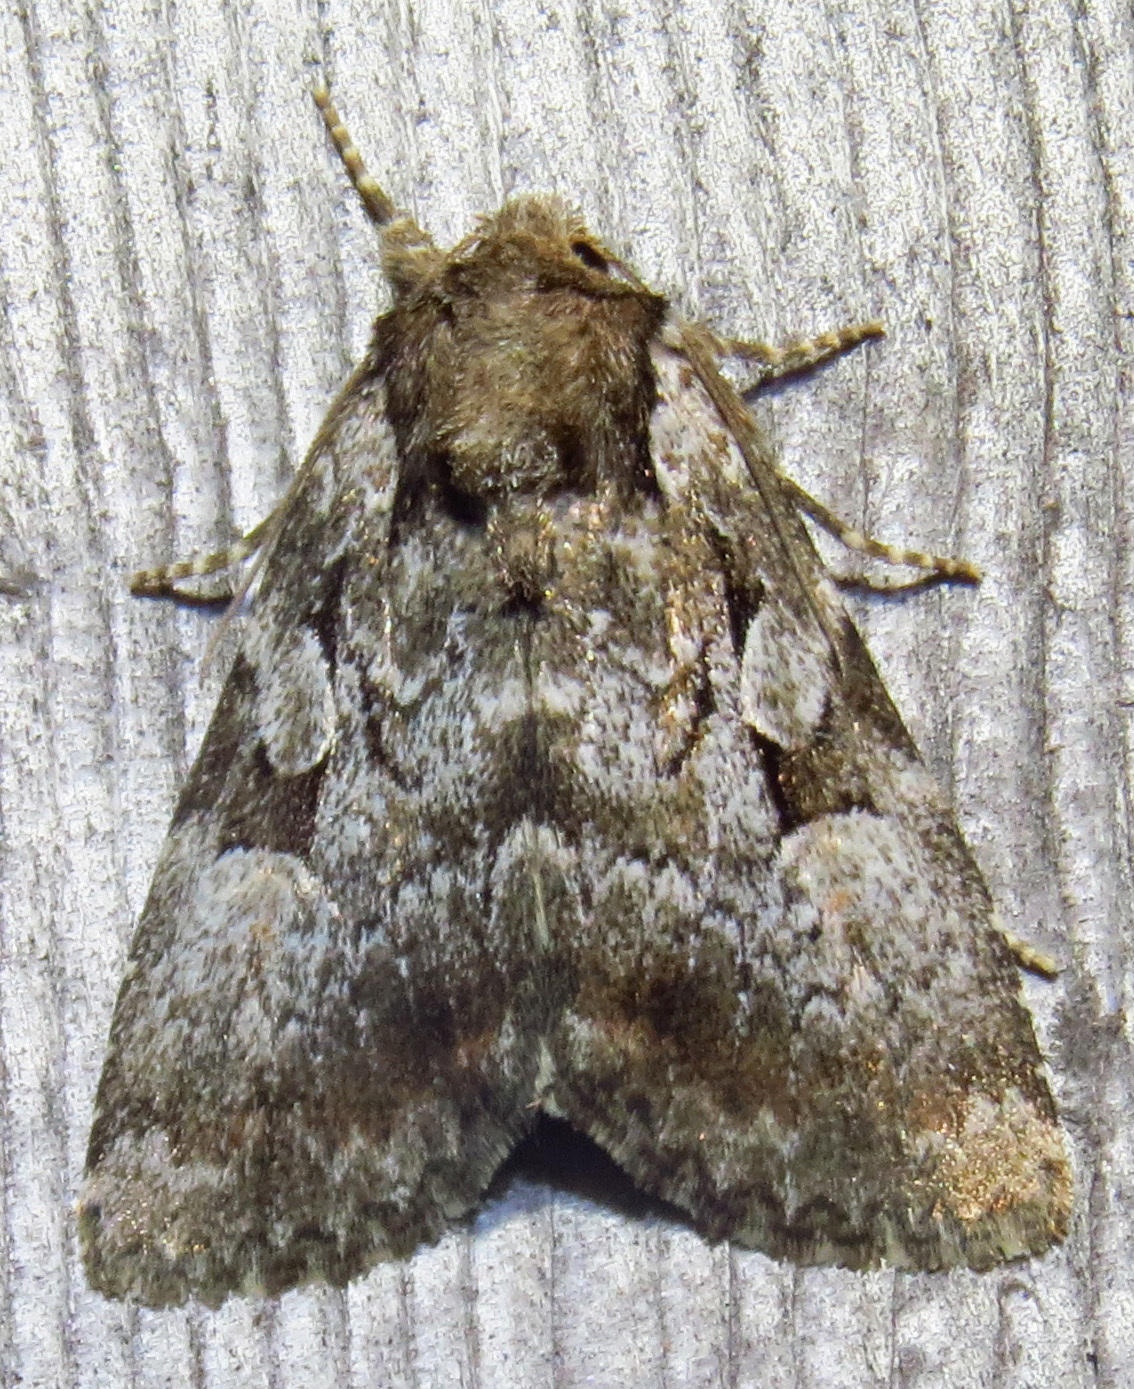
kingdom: Animalia
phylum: Arthropoda
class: Insecta
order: Lepidoptera
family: Noctuidae
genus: Aplectoides
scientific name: Aplectoides condita
